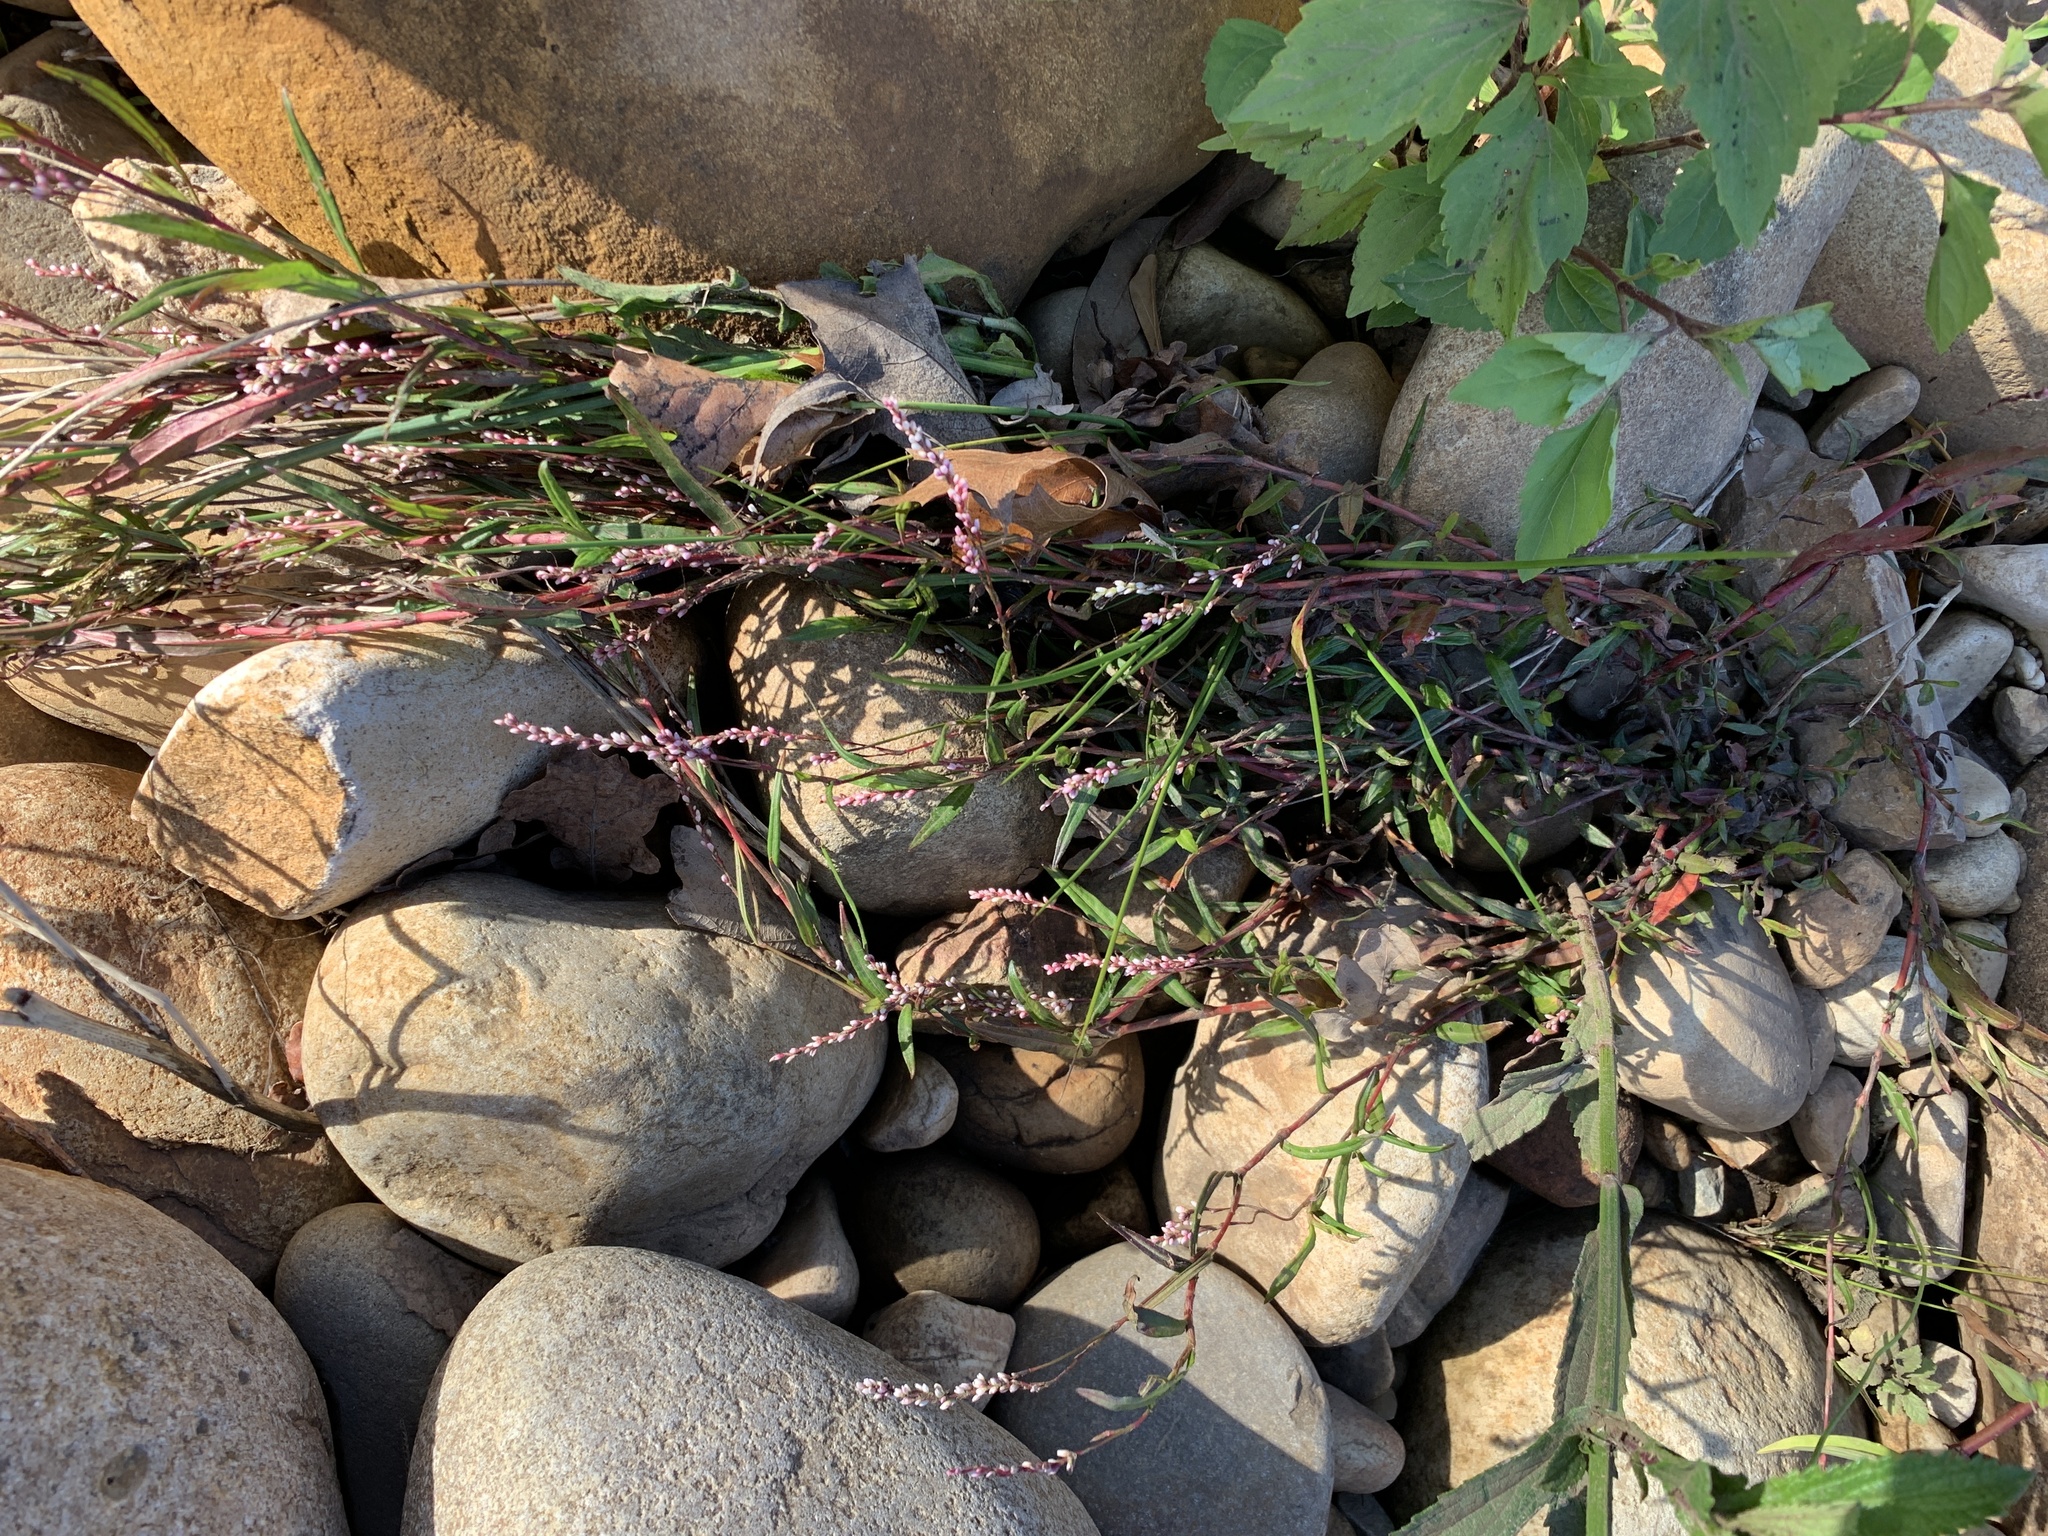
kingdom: Plantae
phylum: Tracheophyta
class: Magnoliopsida
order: Caryophyllales
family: Polygonaceae
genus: Persicaria
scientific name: Persicaria decipiens
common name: Willow-weed
